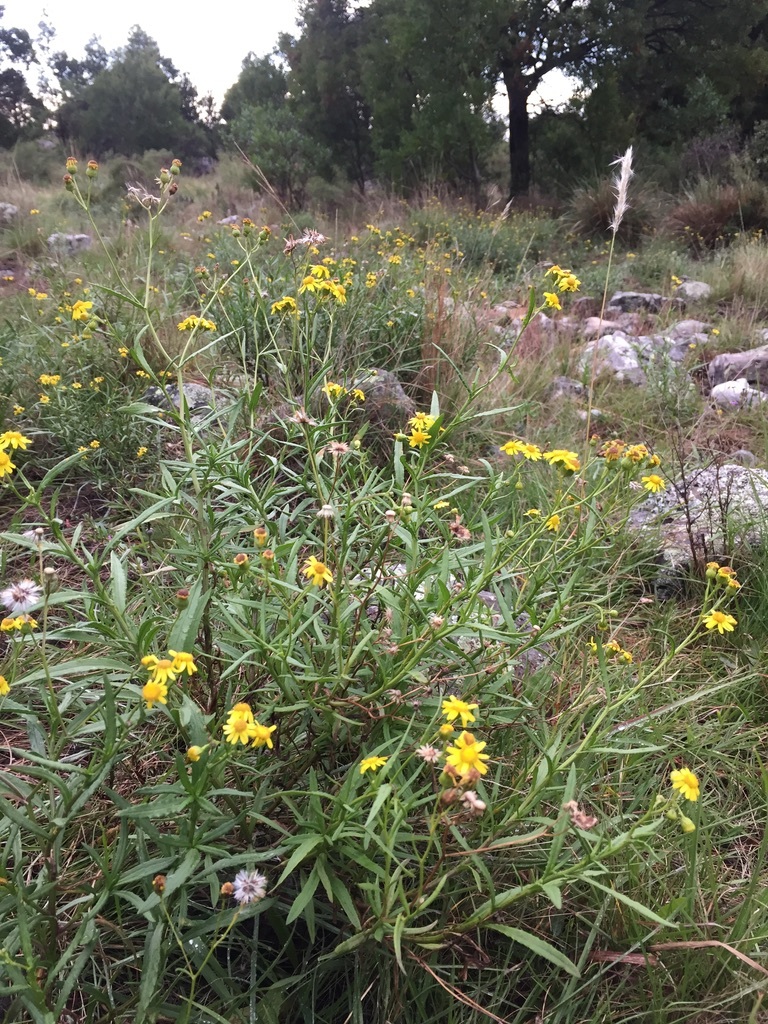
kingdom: Plantae
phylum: Tracheophyta
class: Magnoliopsida
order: Asterales
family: Asteraceae
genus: Senecio
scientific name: Senecio madagascariensis
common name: Madagascar ragwort
